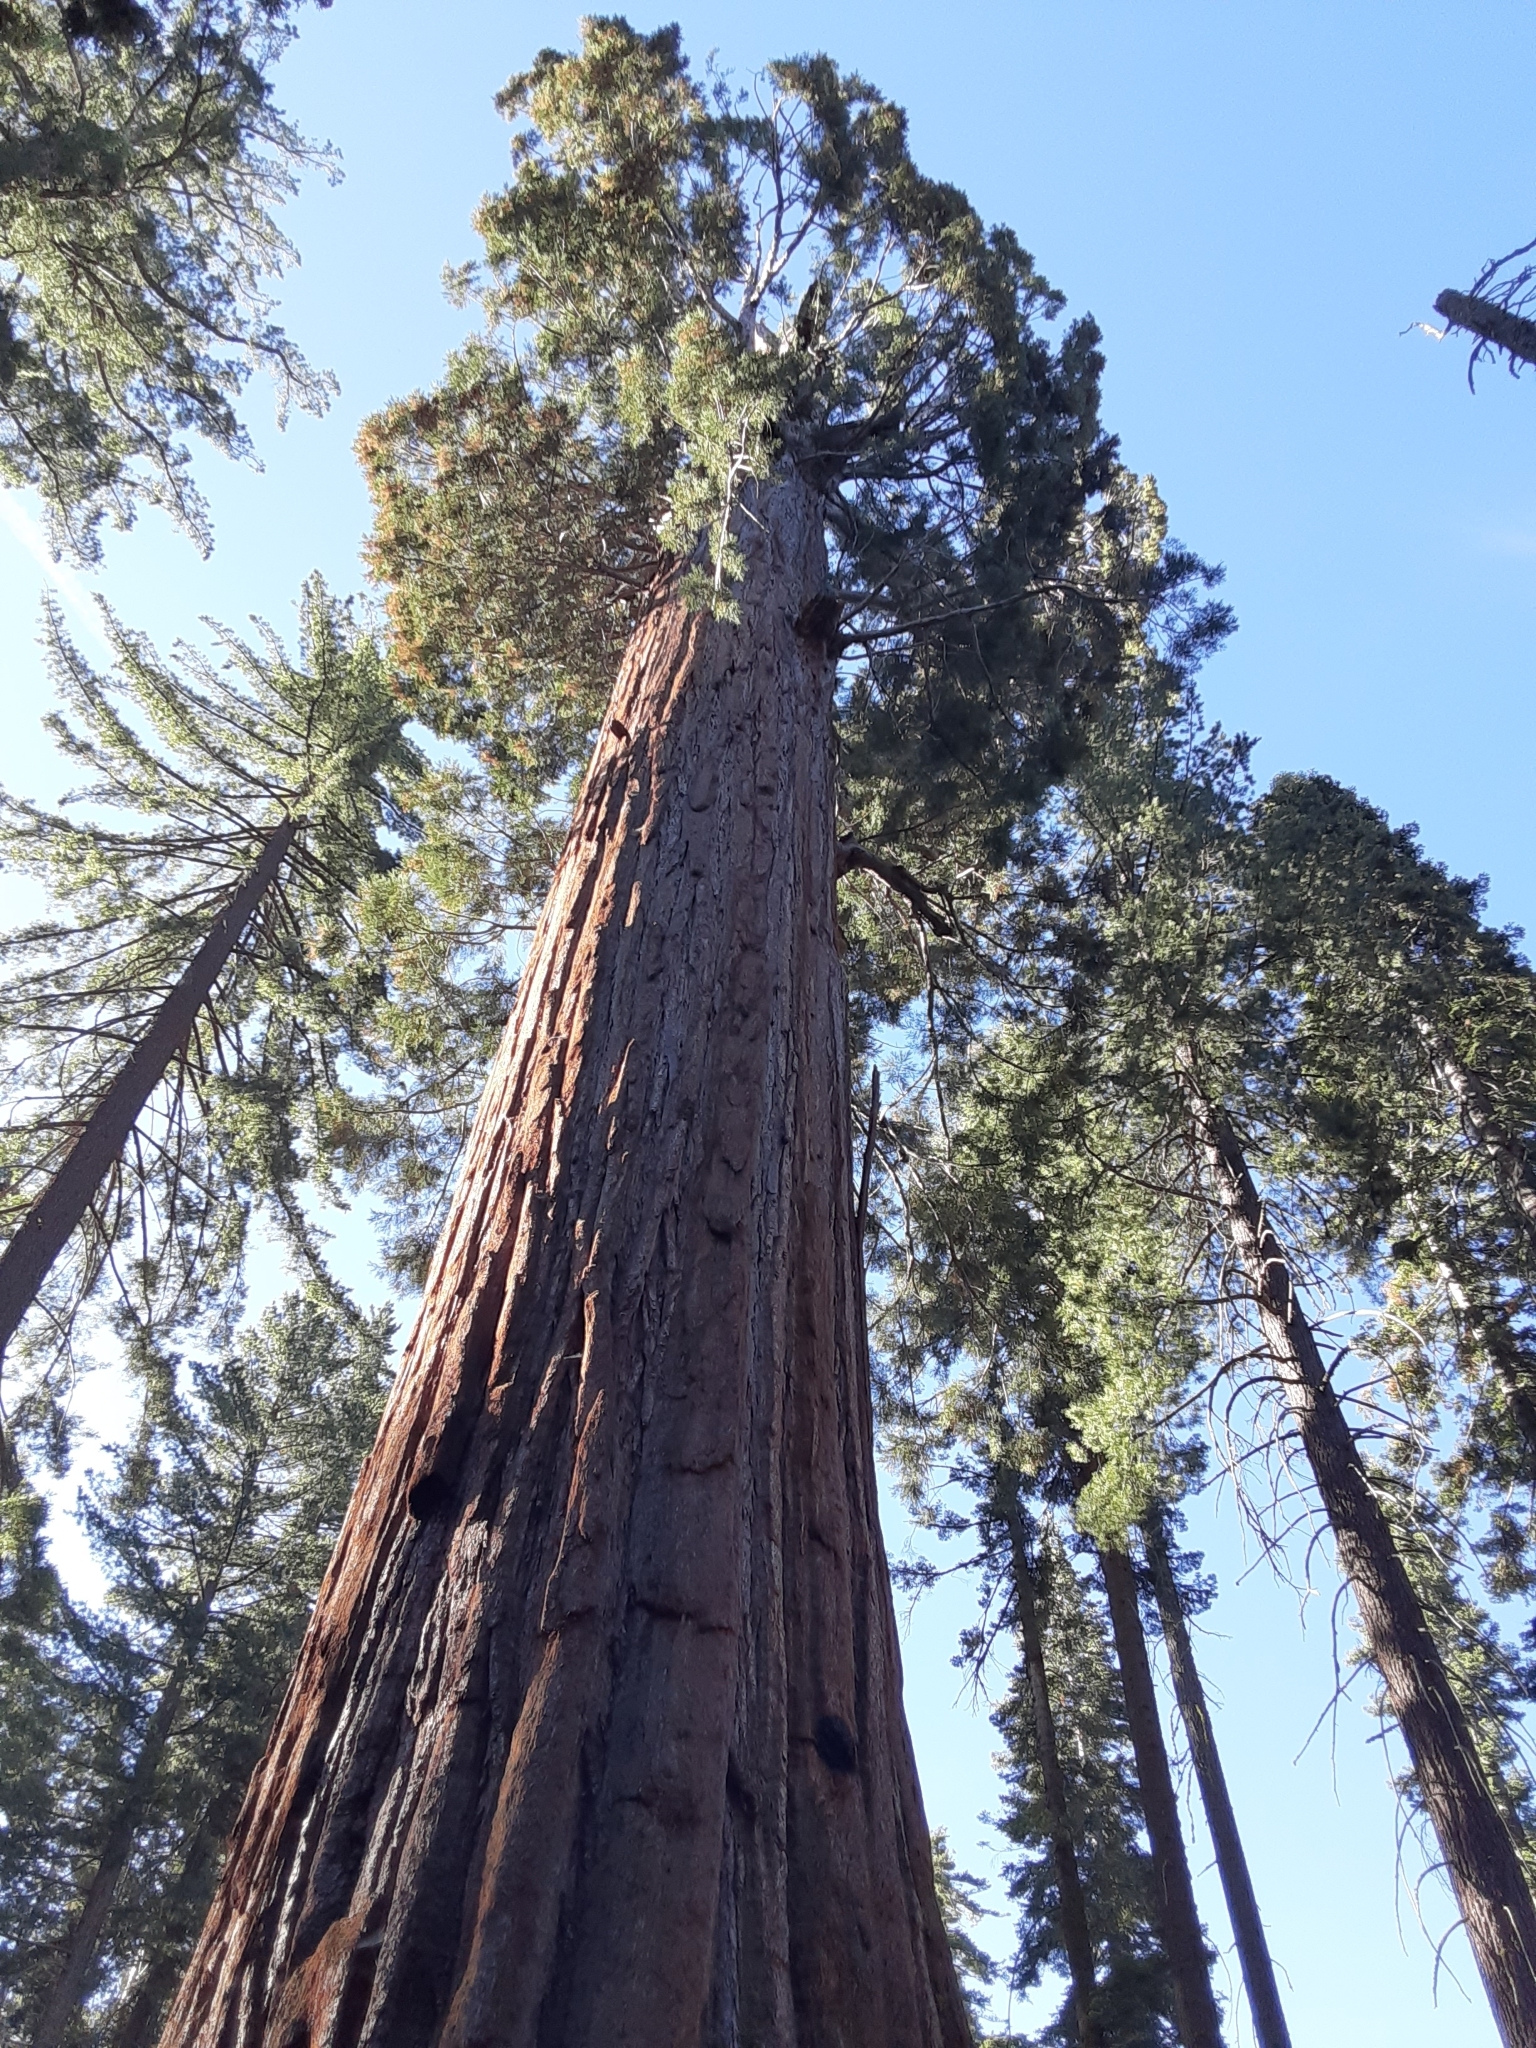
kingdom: Plantae
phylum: Tracheophyta
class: Pinopsida
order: Pinales
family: Cupressaceae
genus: Sequoiadendron
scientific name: Sequoiadendron giganteum
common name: Wellingtonia
